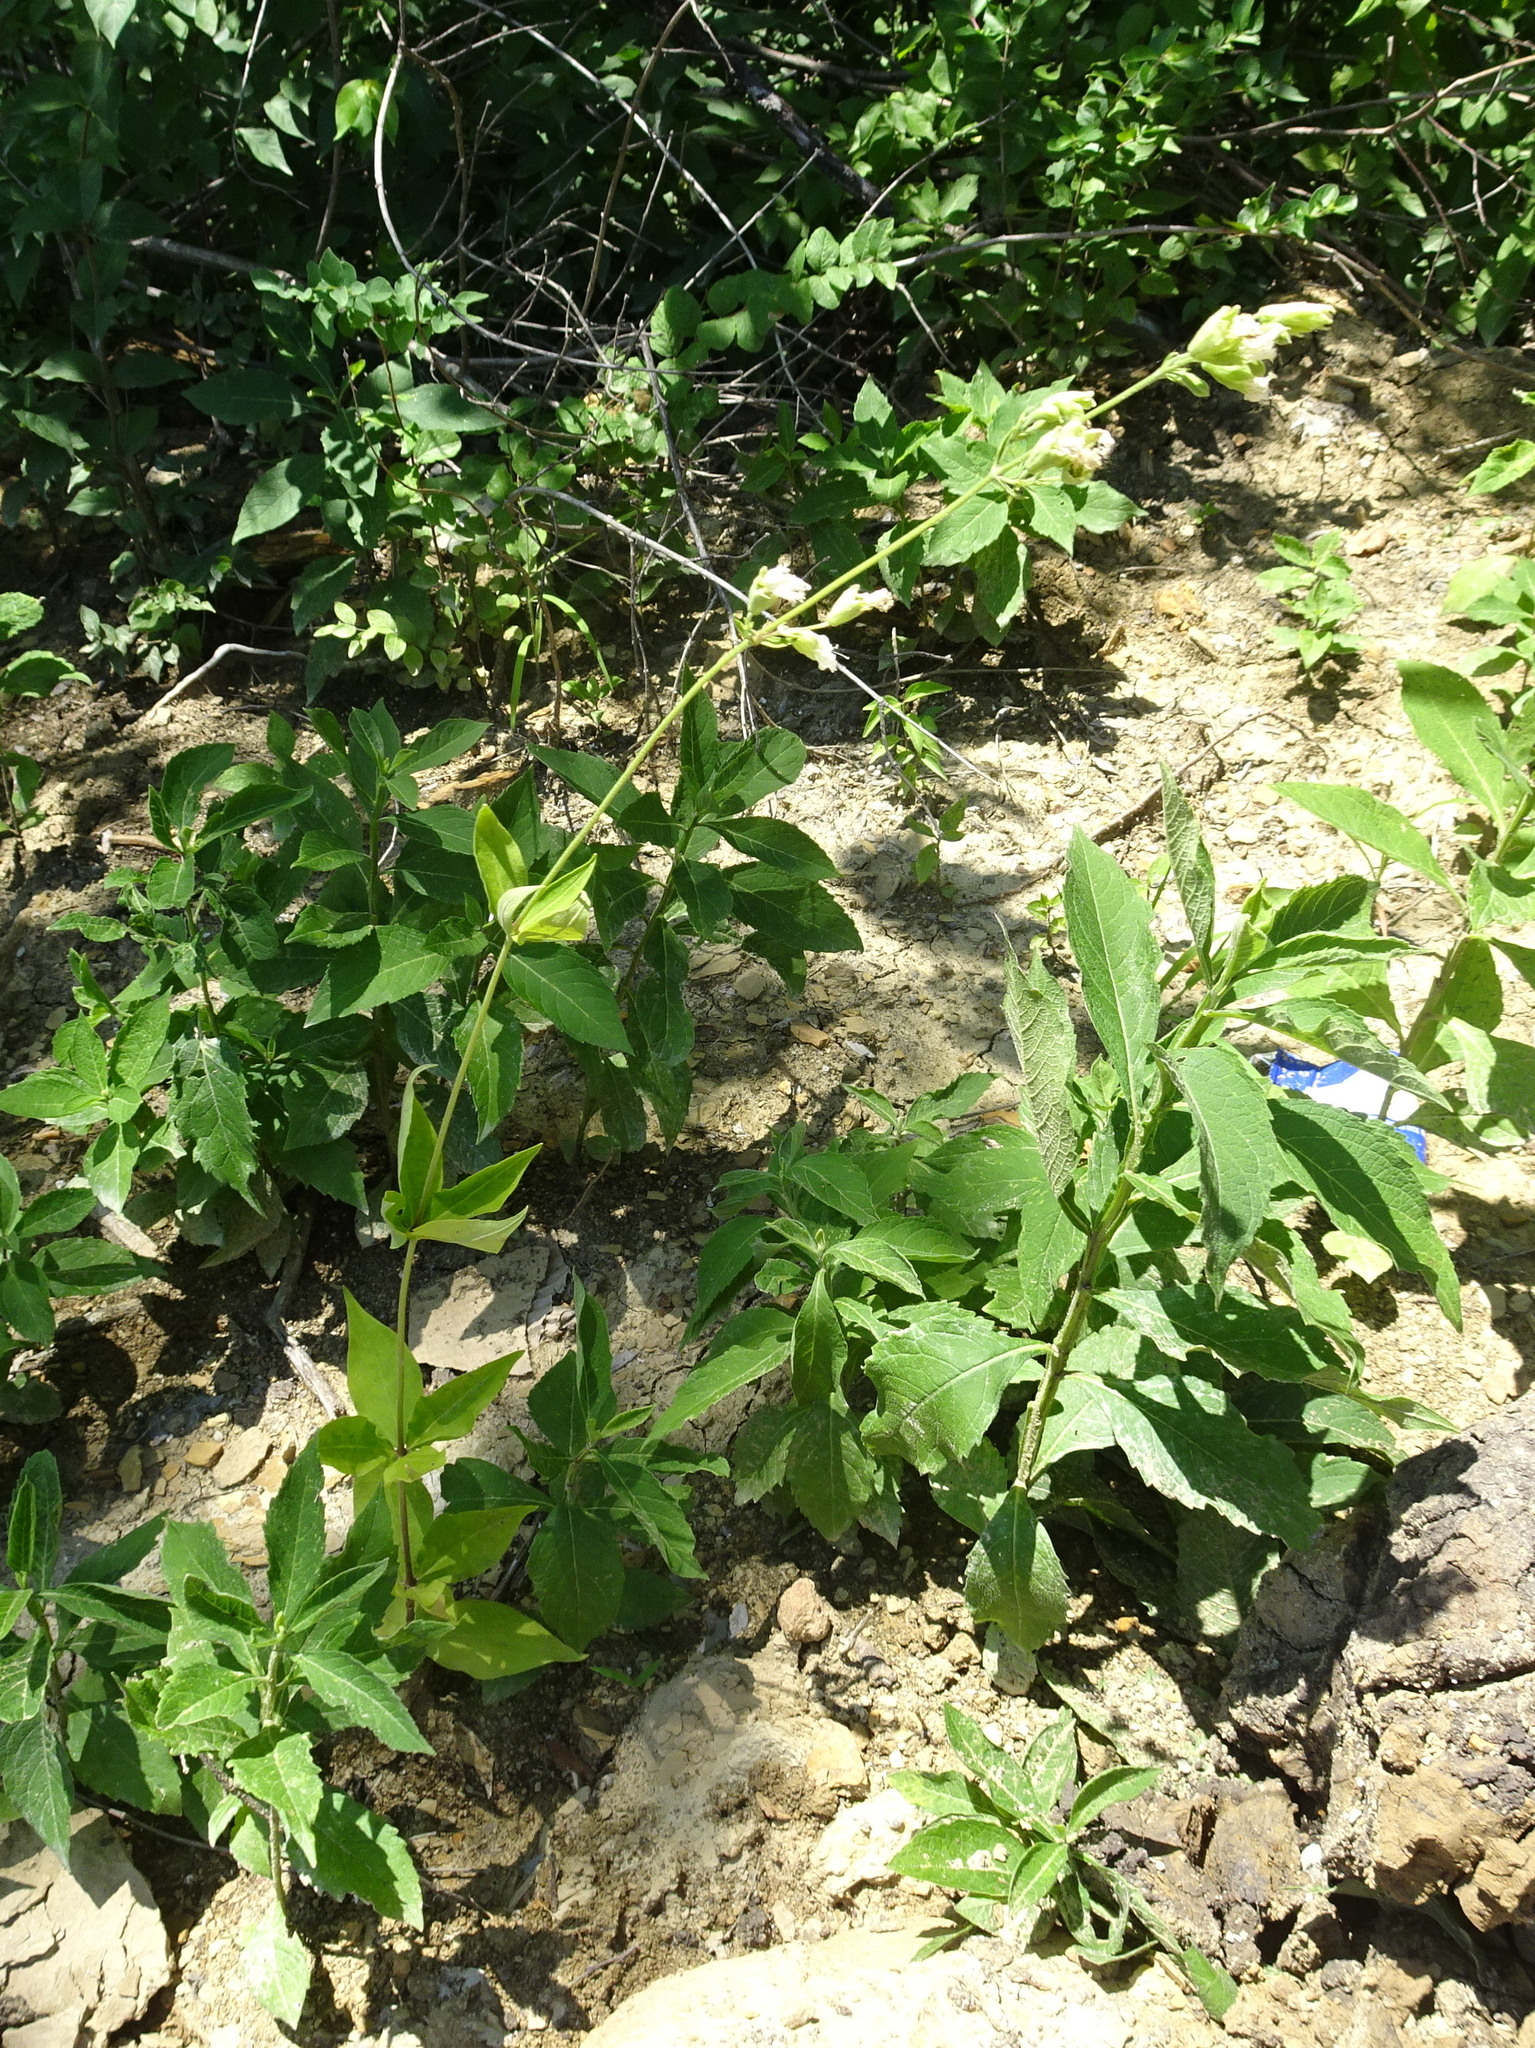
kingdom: Plantae
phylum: Tracheophyta
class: Magnoliopsida
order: Caryophyllales
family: Caryophyllaceae
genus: Silene
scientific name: Silene stellata
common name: Starry campion
